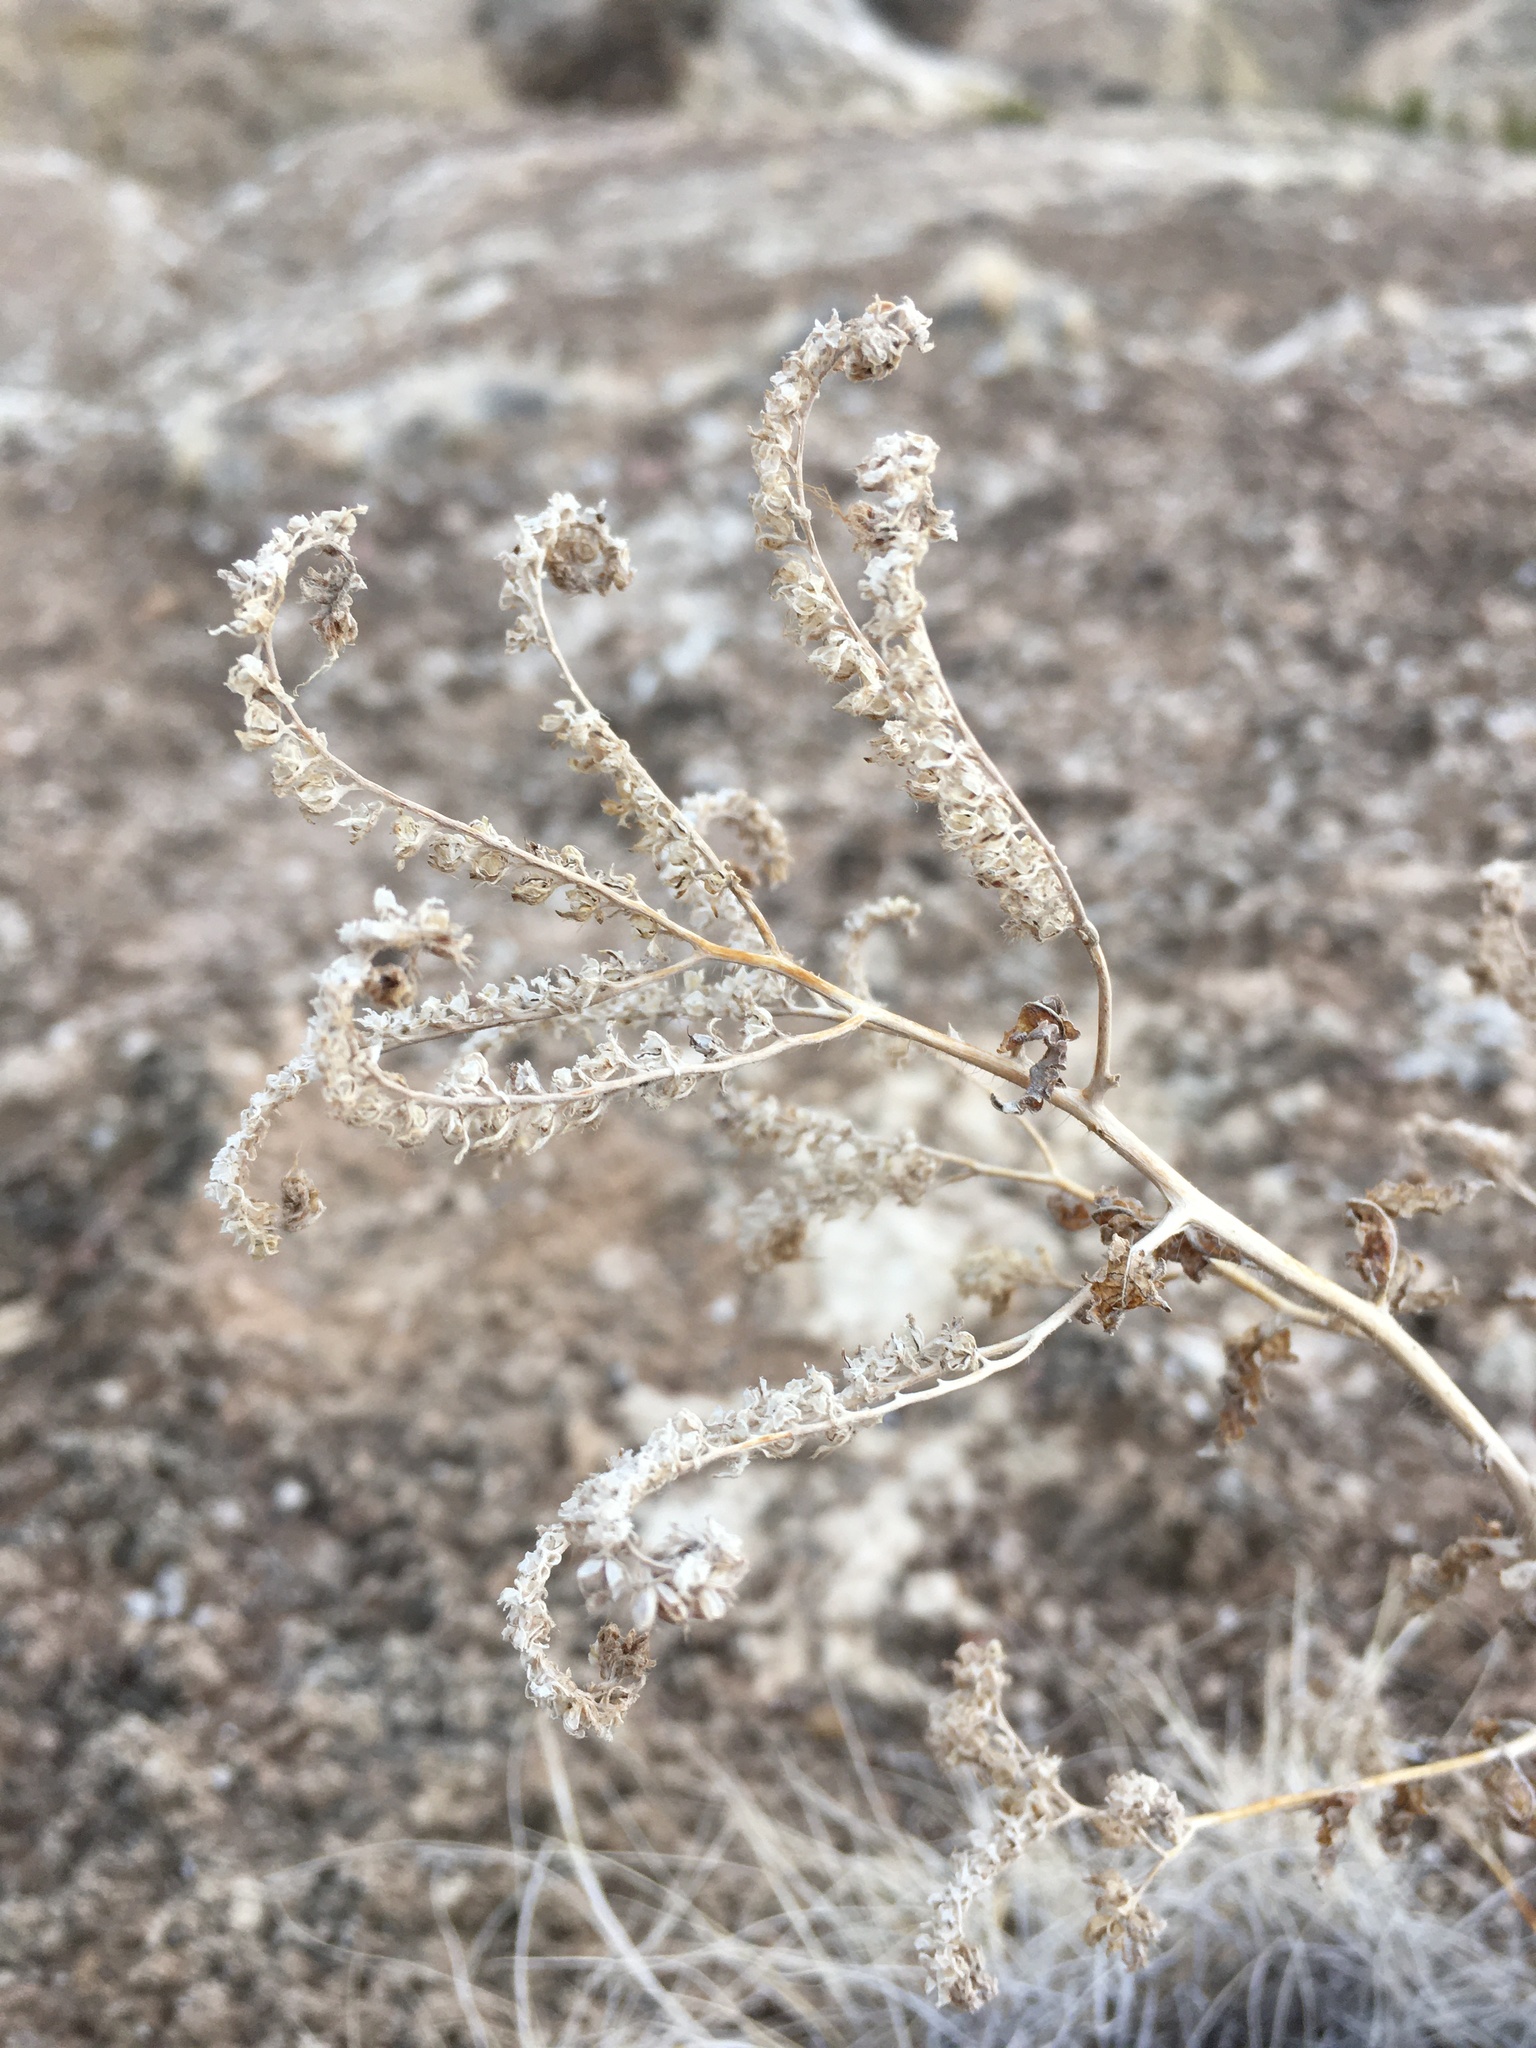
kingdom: Plantae
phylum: Tracheophyta
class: Magnoliopsida
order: Boraginales
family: Hydrophyllaceae
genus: Phacelia
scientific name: Phacelia sivinskii
